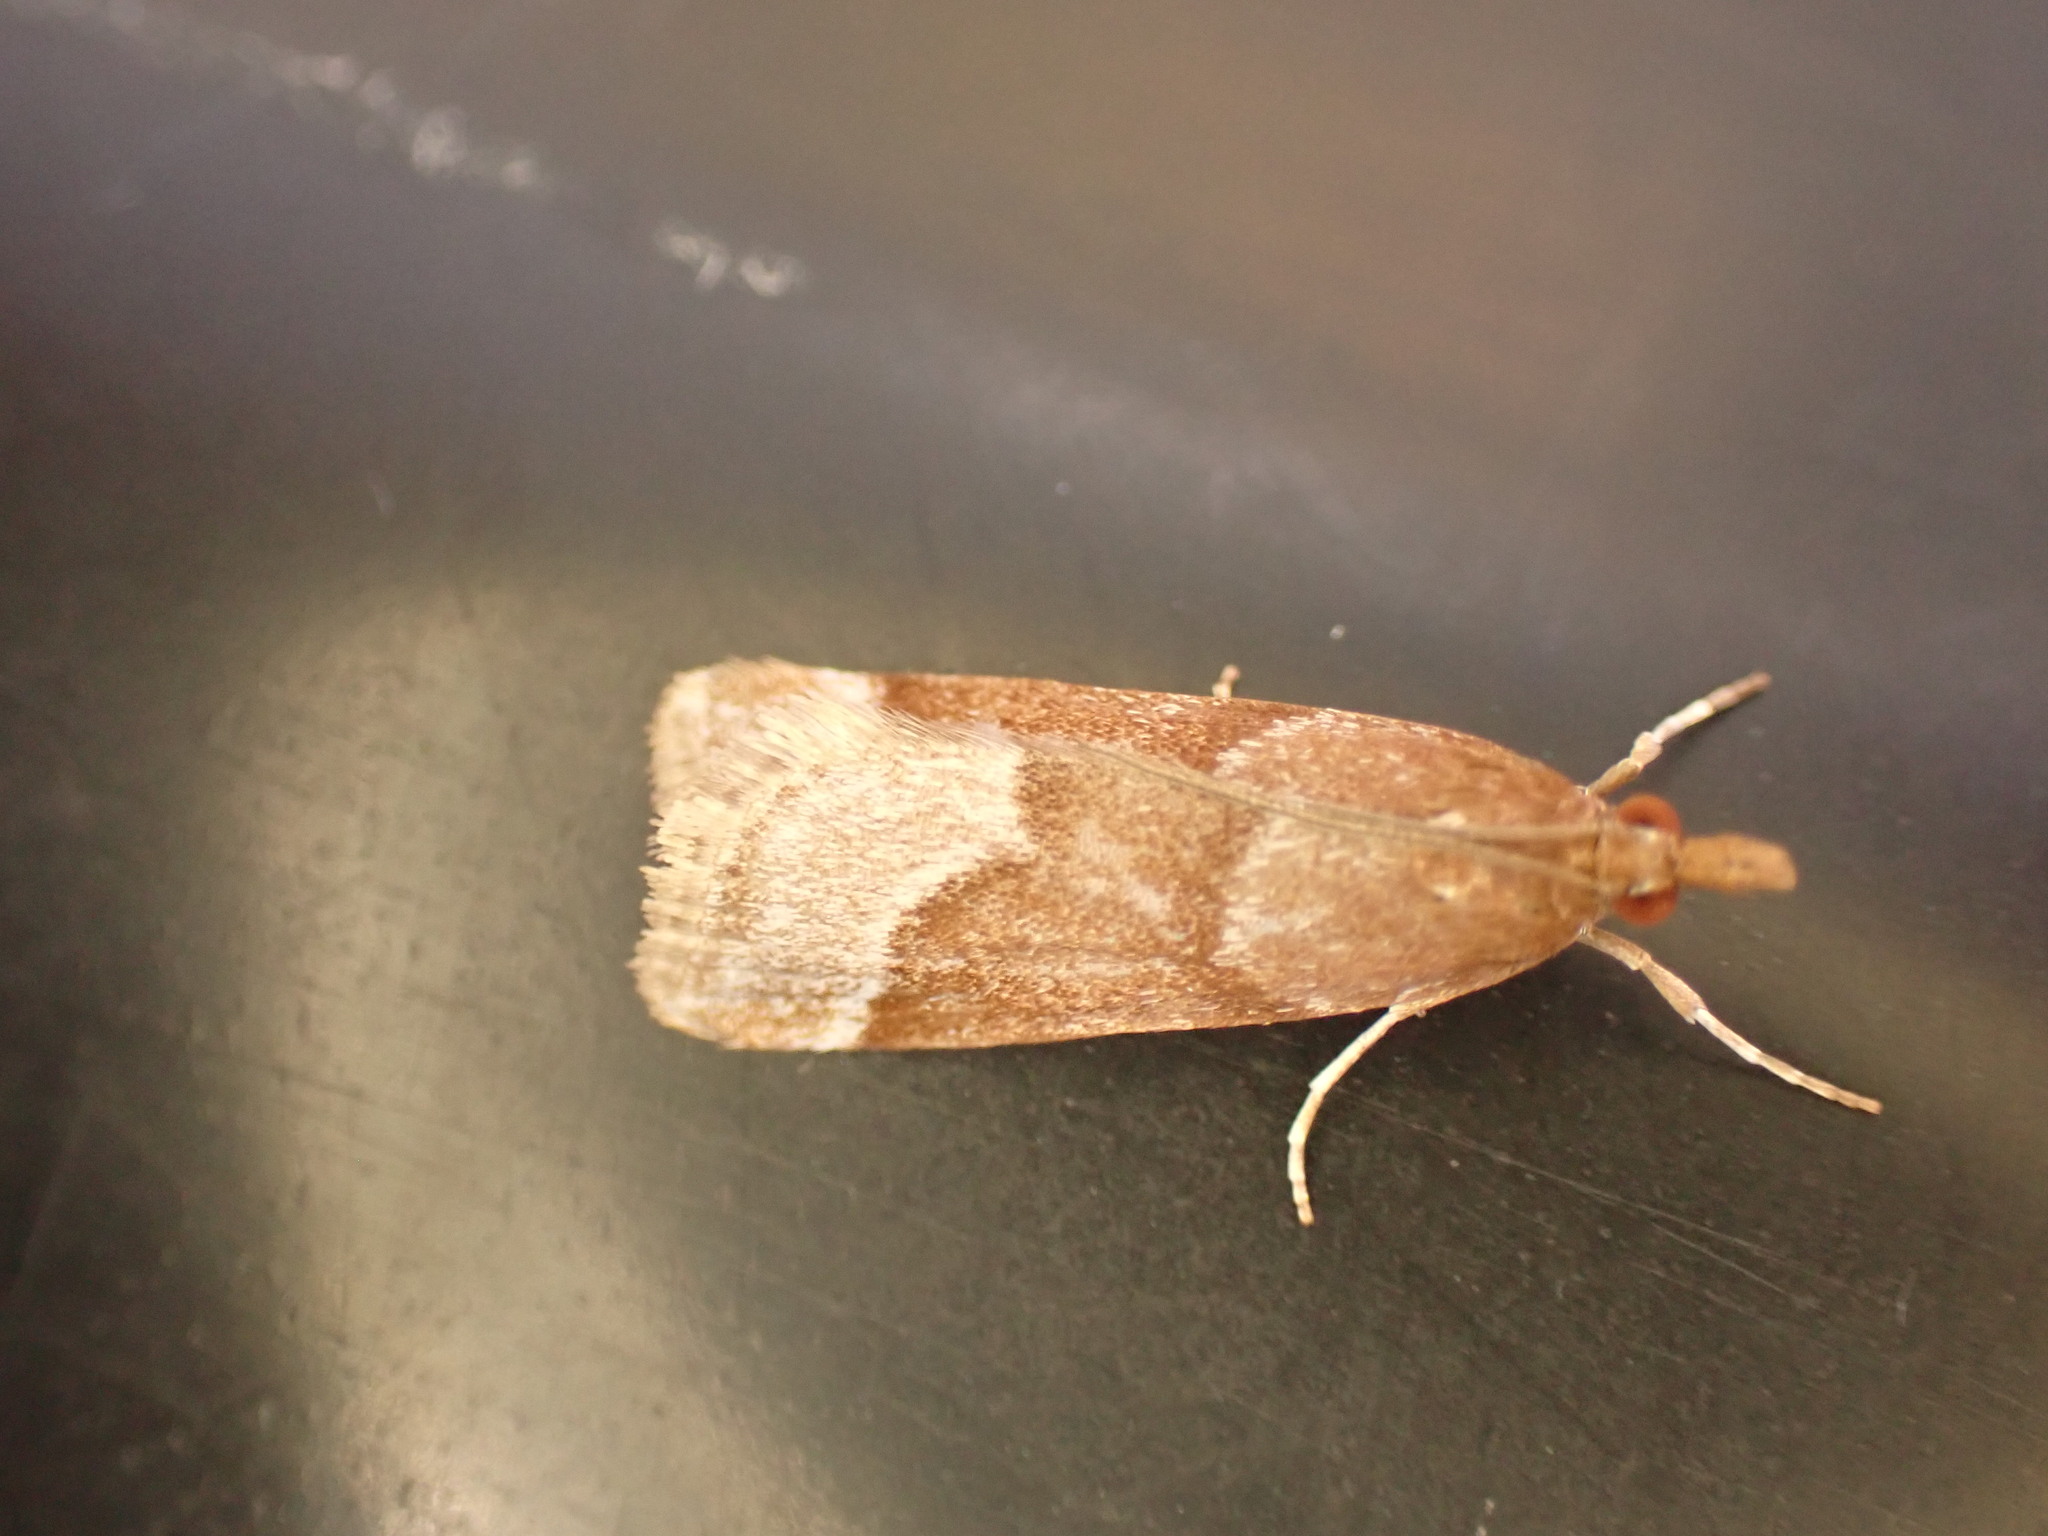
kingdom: Animalia
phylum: Arthropoda
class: Insecta
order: Lepidoptera
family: Crambidae
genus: Eudonia
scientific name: Eudonia feredayi
